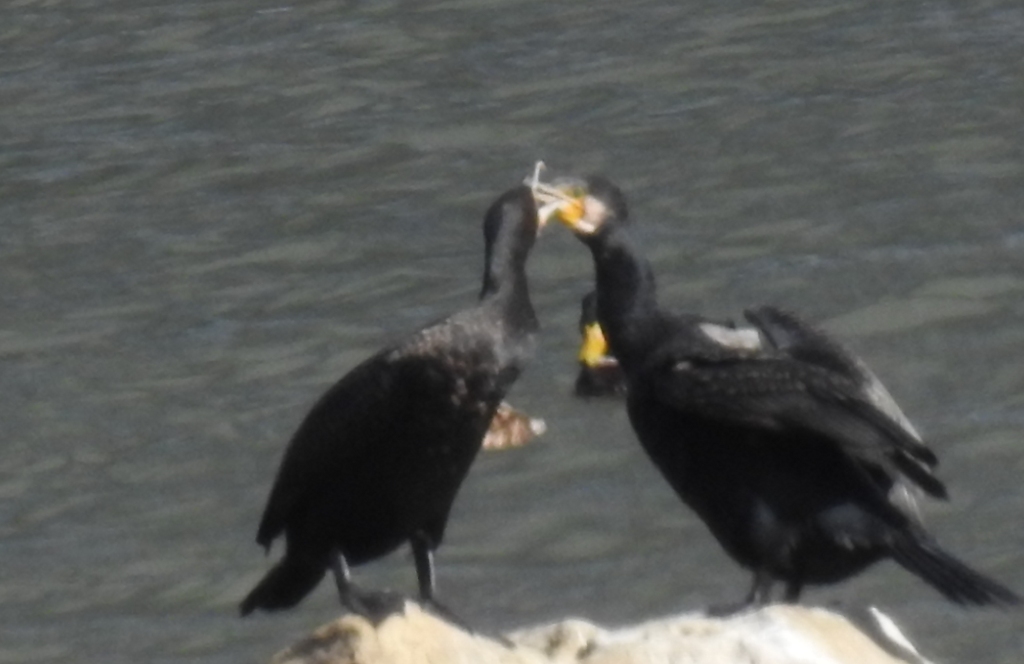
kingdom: Animalia
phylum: Chordata
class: Aves
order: Suliformes
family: Phalacrocoracidae
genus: Phalacrocorax
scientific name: Phalacrocorax carbo
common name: Great cormorant
